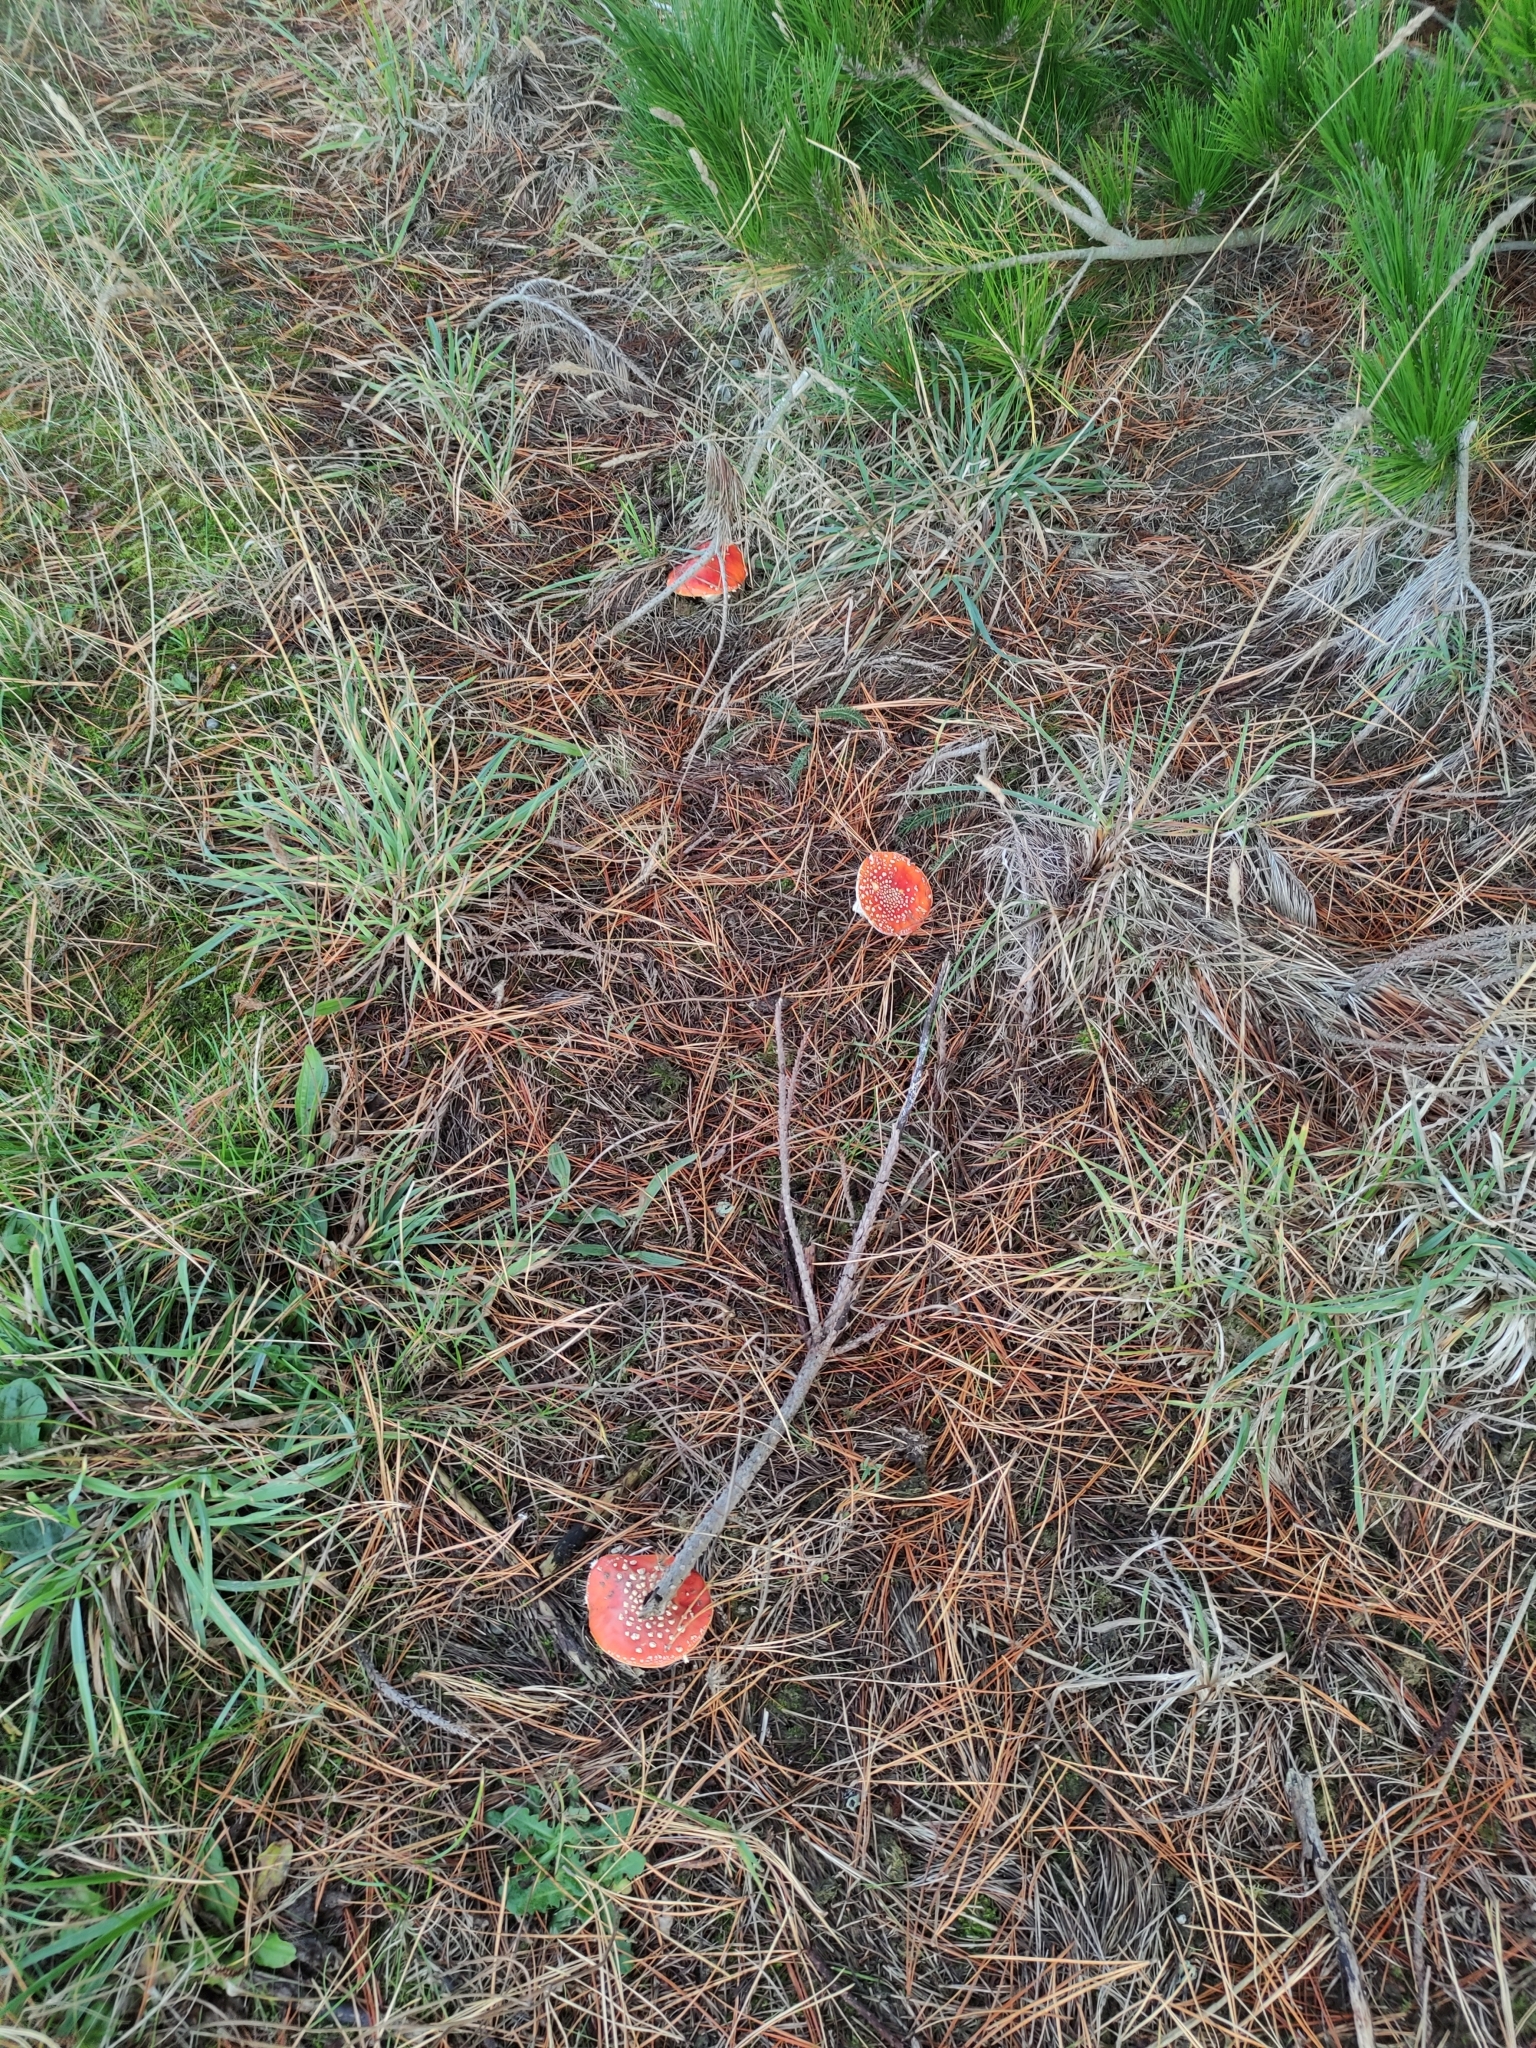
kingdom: Fungi
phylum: Basidiomycota
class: Agaricomycetes
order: Agaricales
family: Amanitaceae
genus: Amanita
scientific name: Amanita muscaria
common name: Fly agaric
